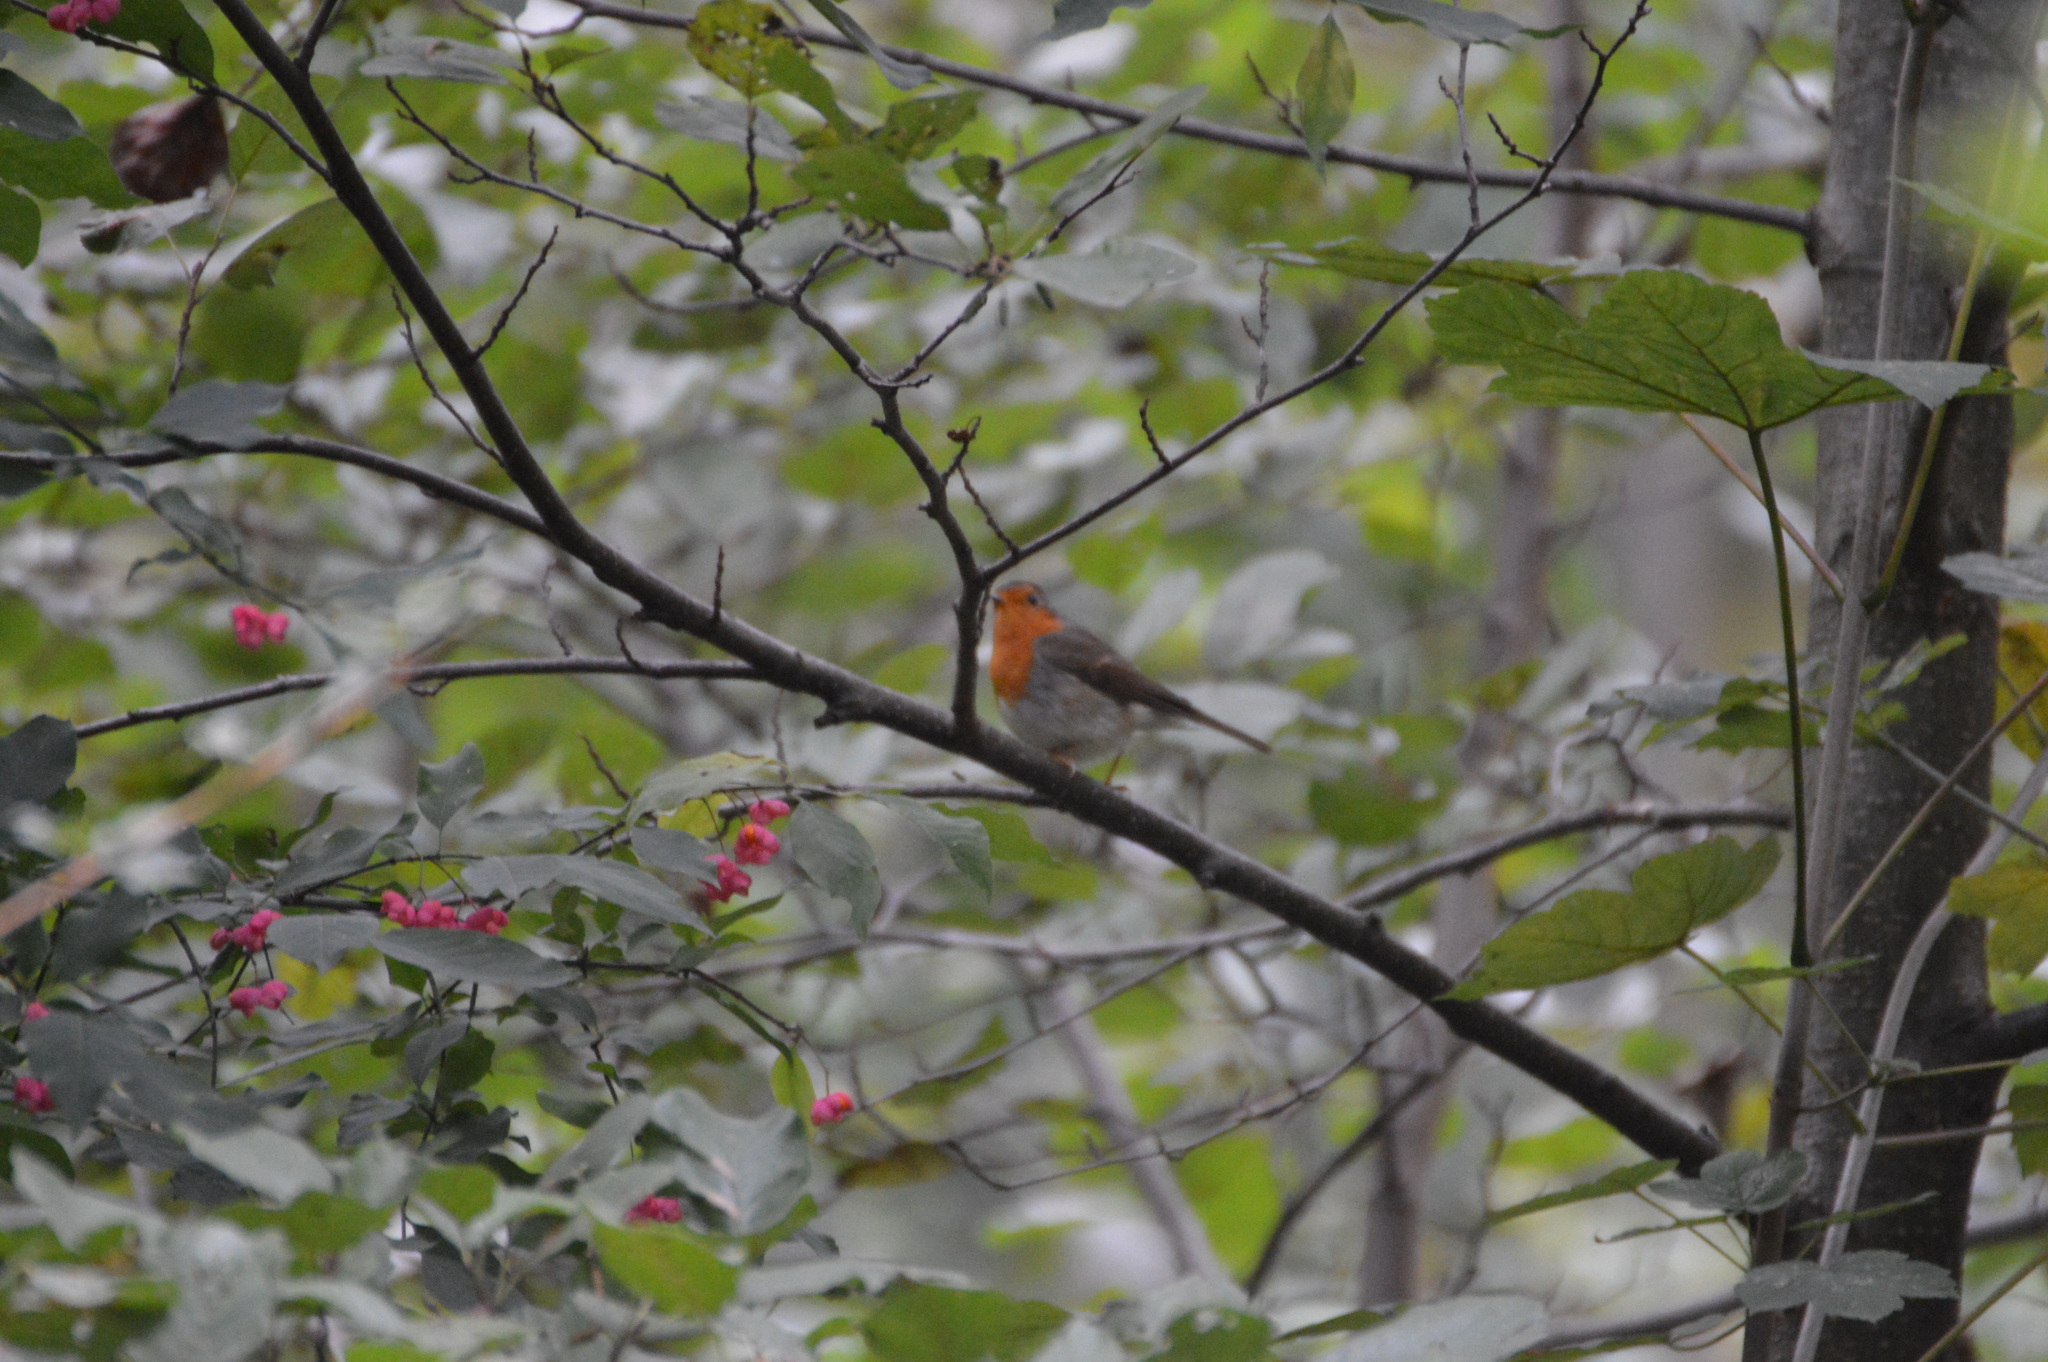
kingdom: Animalia
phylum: Chordata
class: Aves
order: Passeriformes
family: Muscicapidae
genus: Erithacus
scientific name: Erithacus rubecula
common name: European robin
